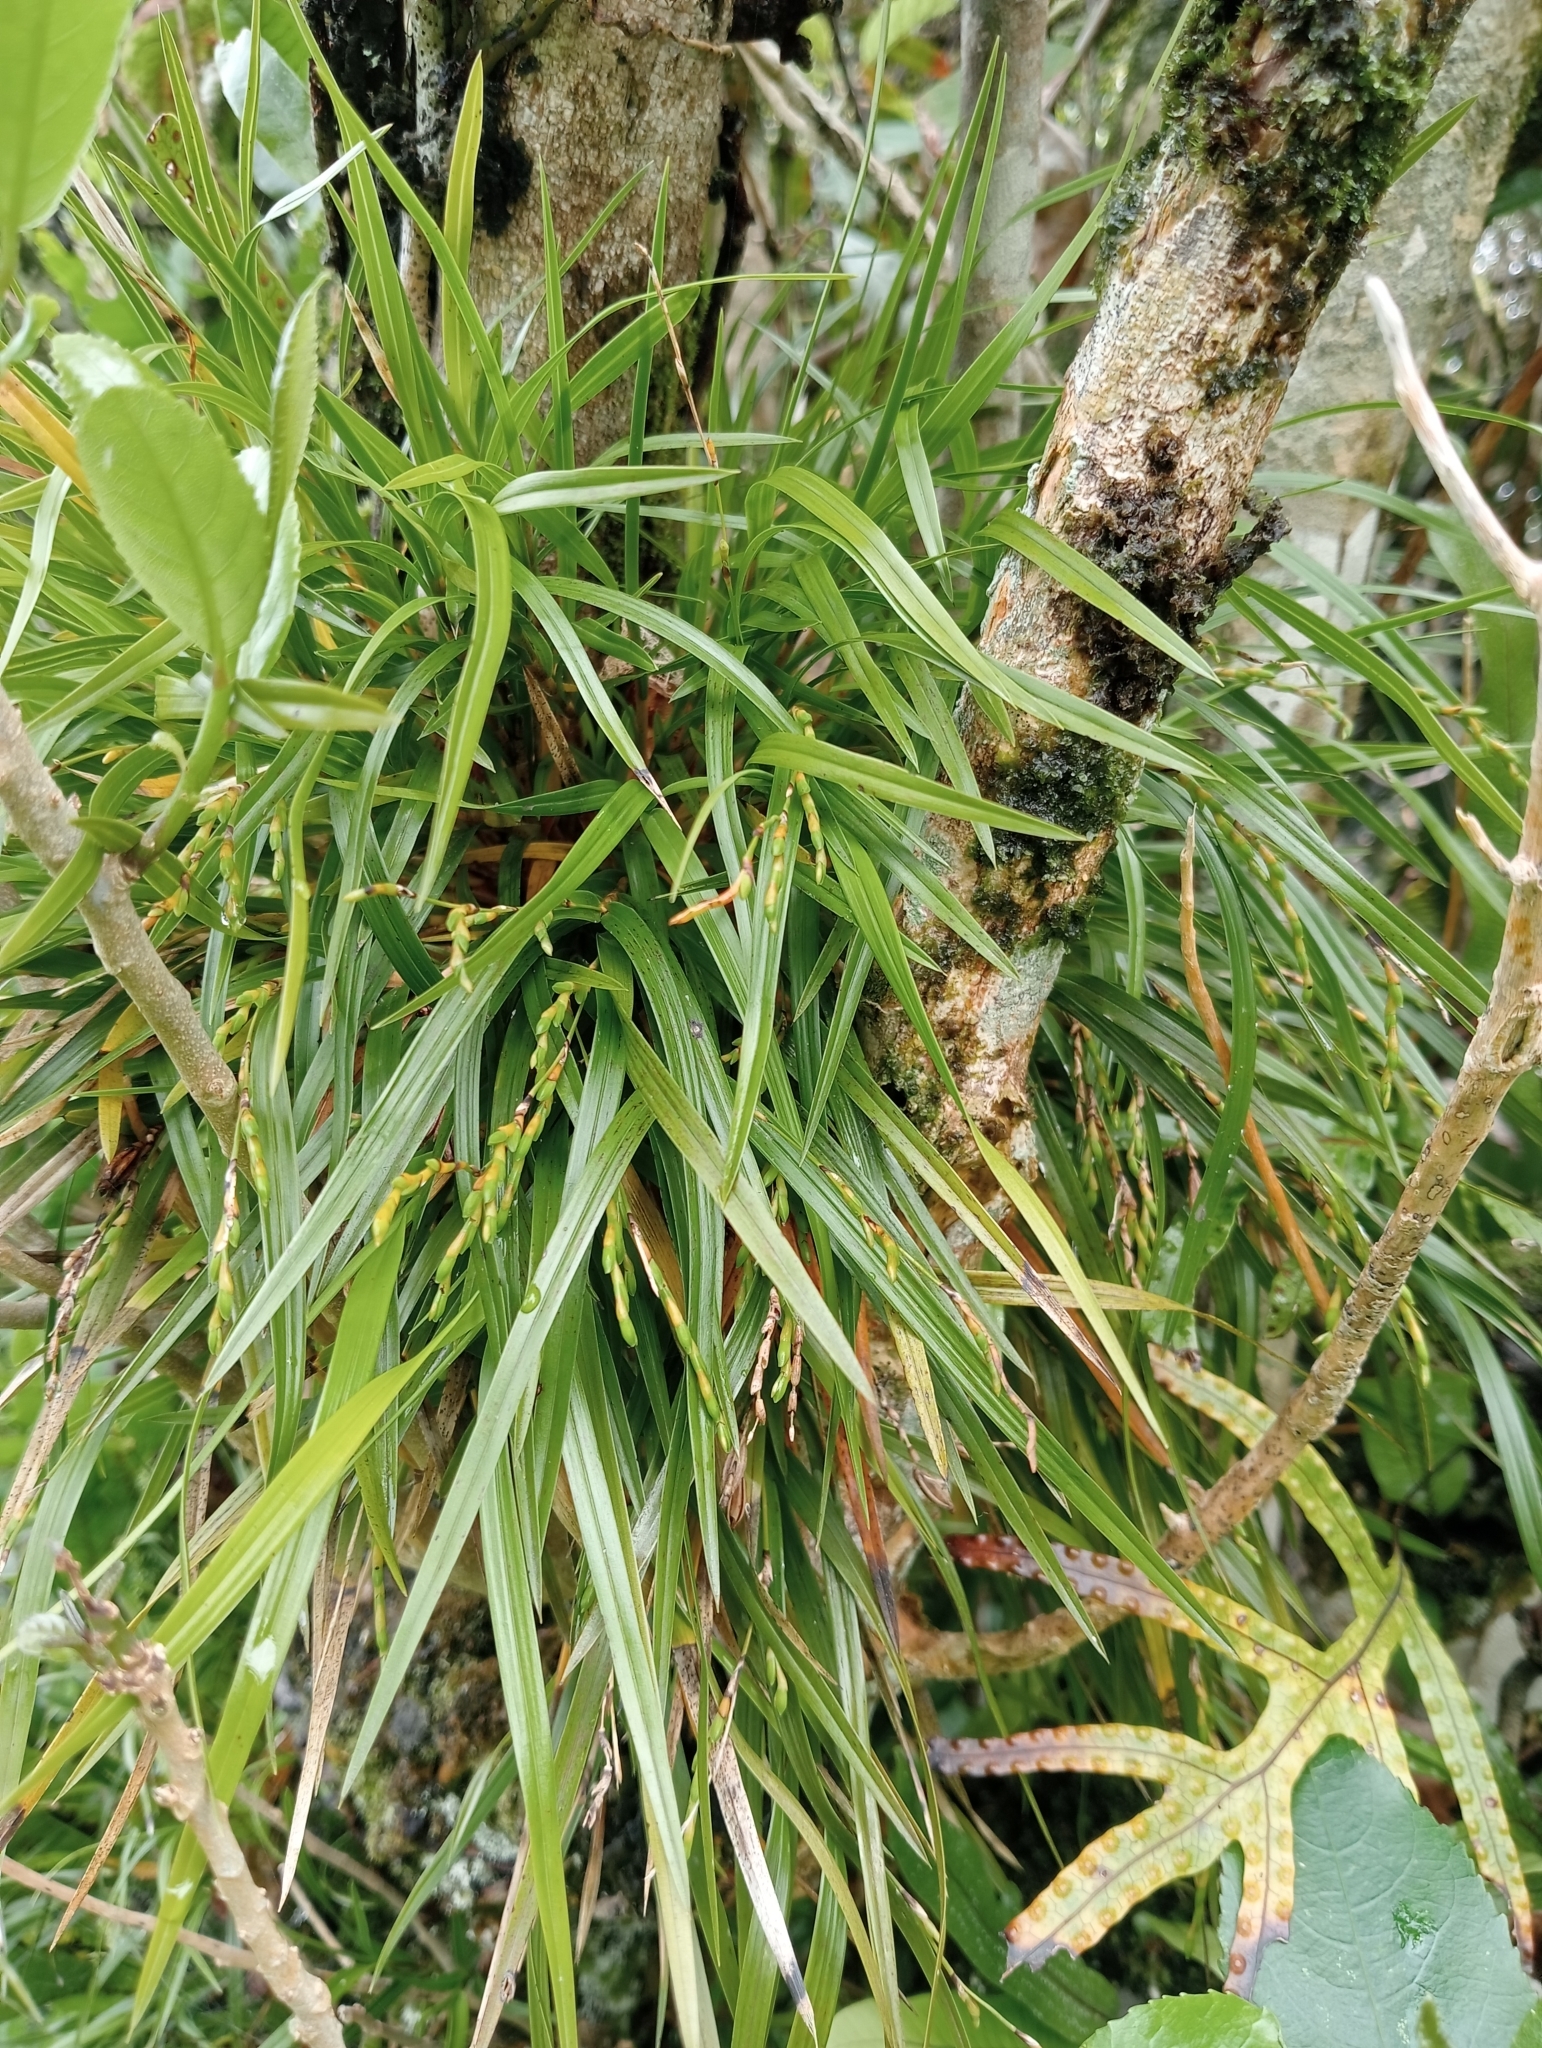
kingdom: Plantae
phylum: Tracheophyta
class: Liliopsida
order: Asparagales
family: Orchidaceae
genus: Earina
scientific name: Earina mucronata
